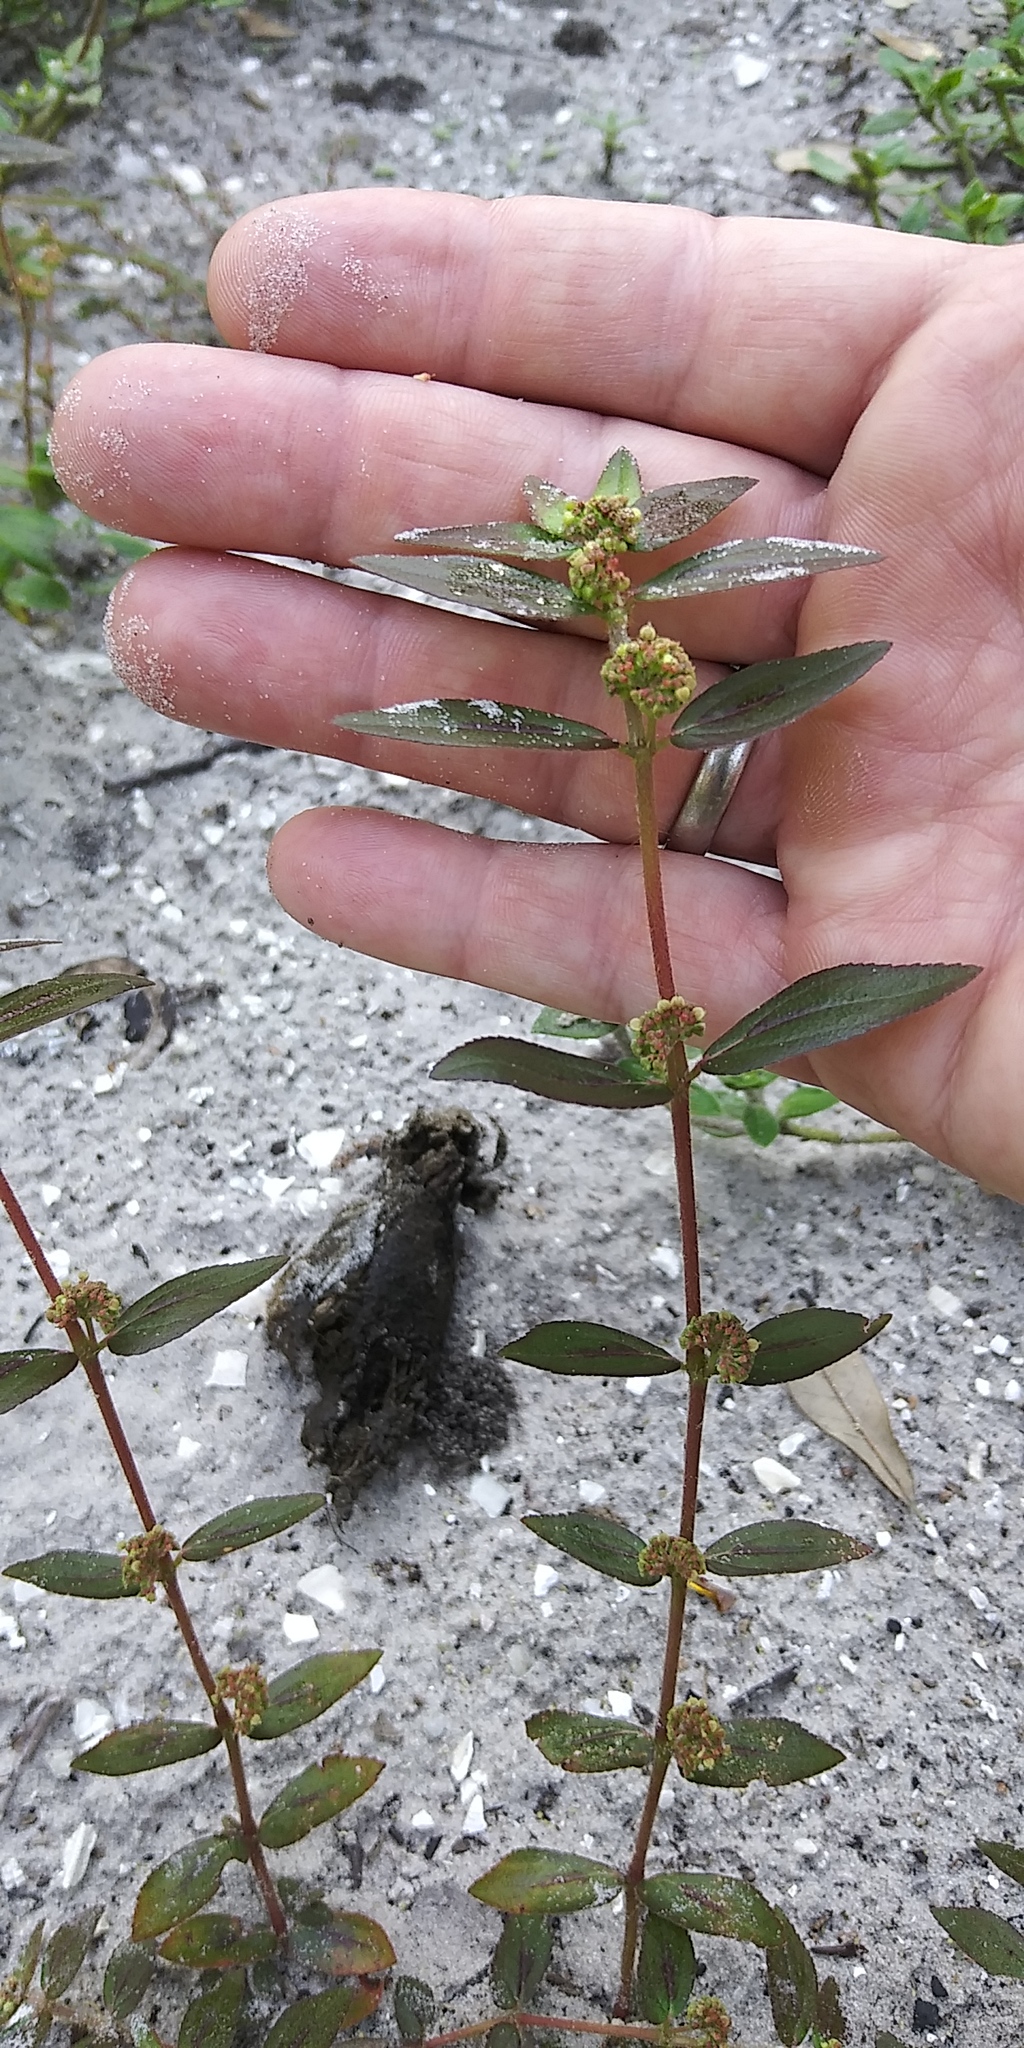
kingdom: Plantae
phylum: Tracheophyta
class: Magnoliopsida
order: Malpighiales
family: Euphorbiaceae
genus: Euphorbia
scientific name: Euphorbia hirta
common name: Pillpod sandmat
